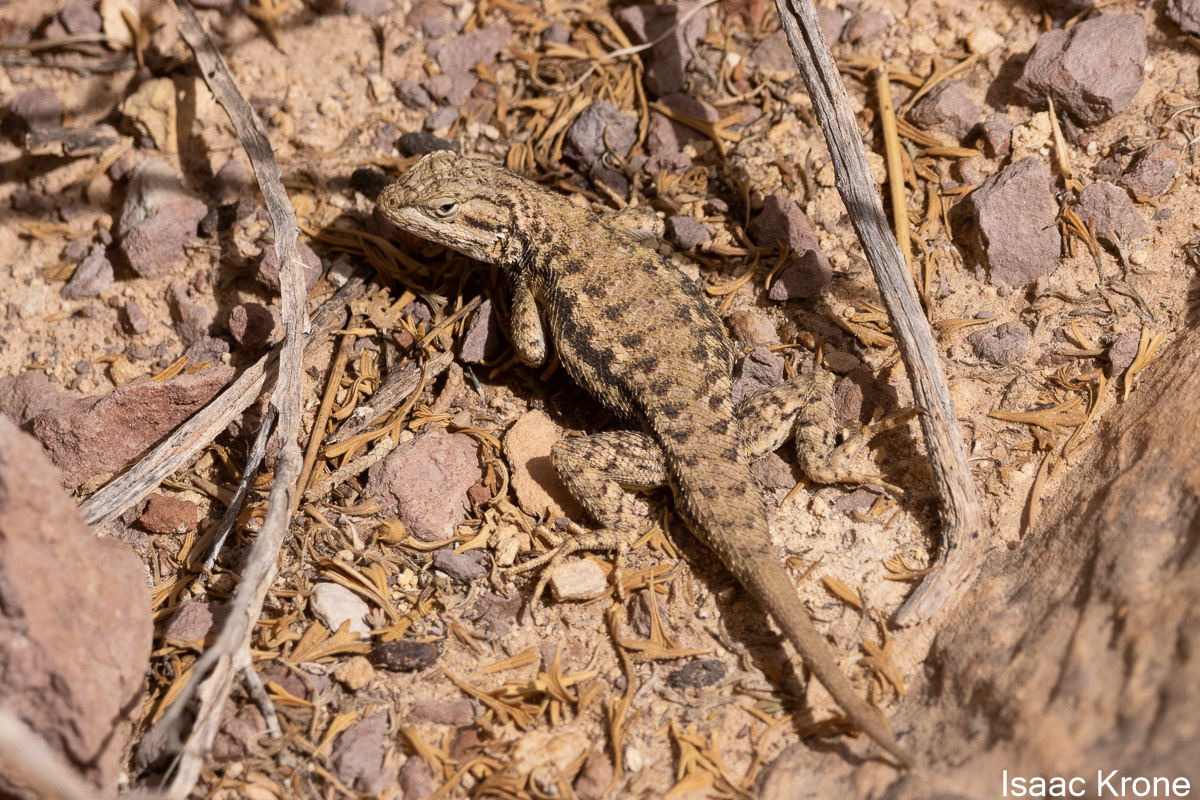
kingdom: Animalia
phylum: Chordata
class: Squamata
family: Phrynosomatidae
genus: Sceloporus
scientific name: Sceloporus tristichus
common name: Plateau fence lizard
